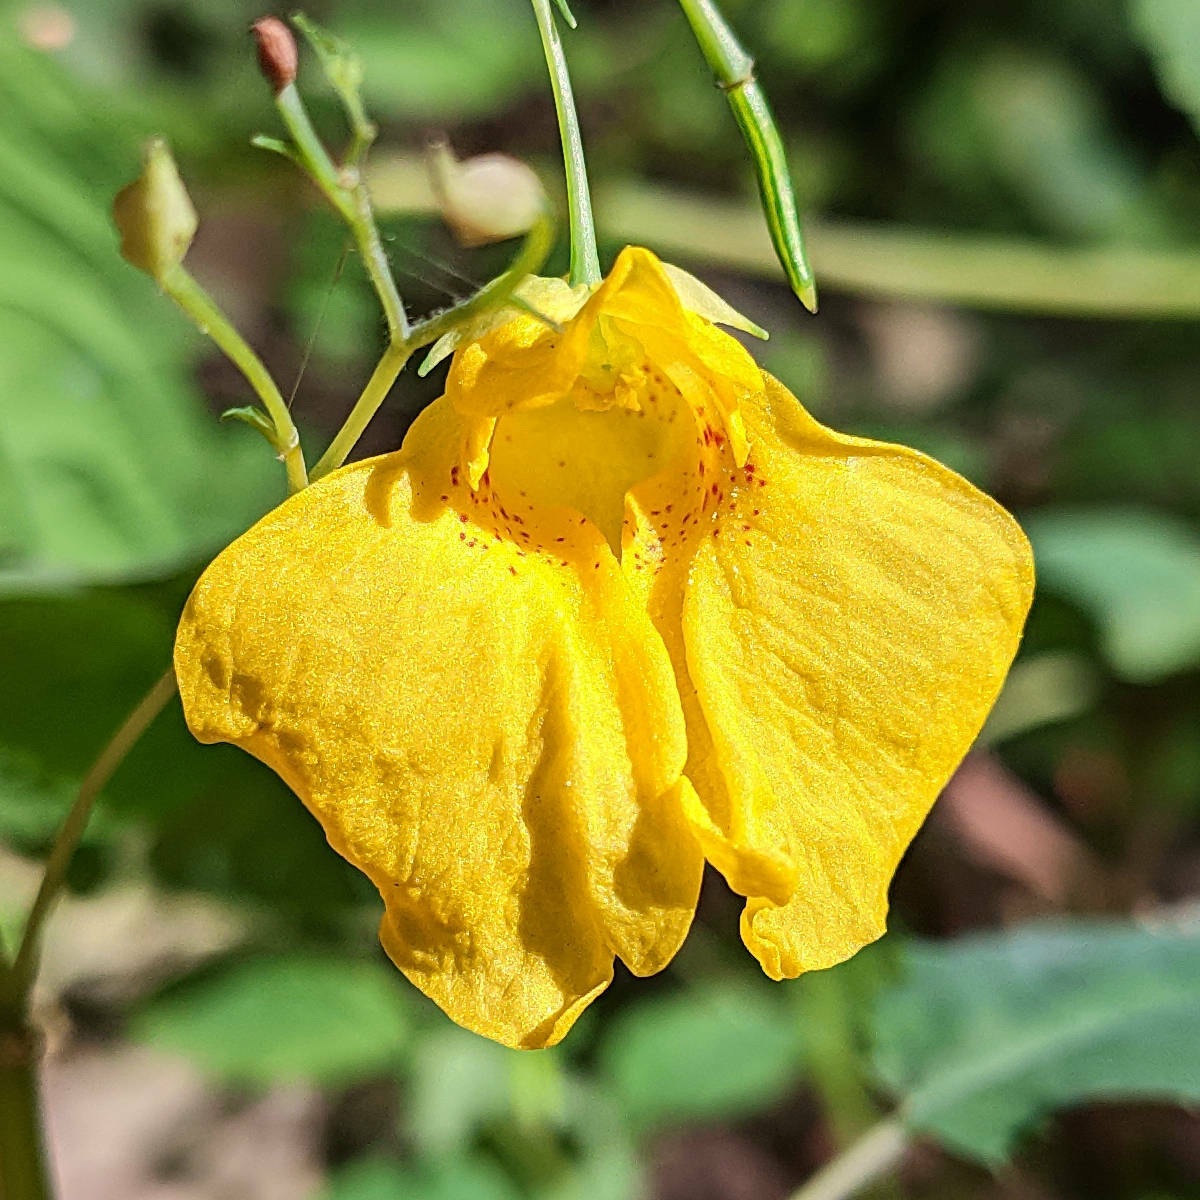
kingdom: Plantae
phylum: Tracheophyta
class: Magnoliopsida
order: Ericales
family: Balsaminaceae
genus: Impatiens
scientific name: Impatiens noli-tangere
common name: Touch-me-not balsam
